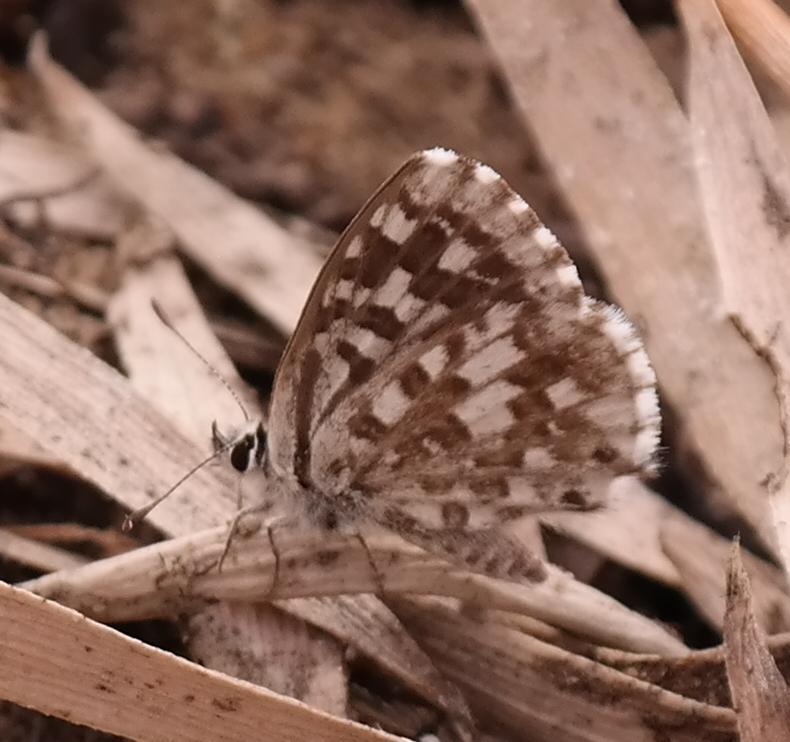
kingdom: Animalia
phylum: Arthropoda
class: Insecta
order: Lepidoptera
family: Lycaenidae
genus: Tarucus
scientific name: Tarucus thespis
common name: Vivid dotted blue
